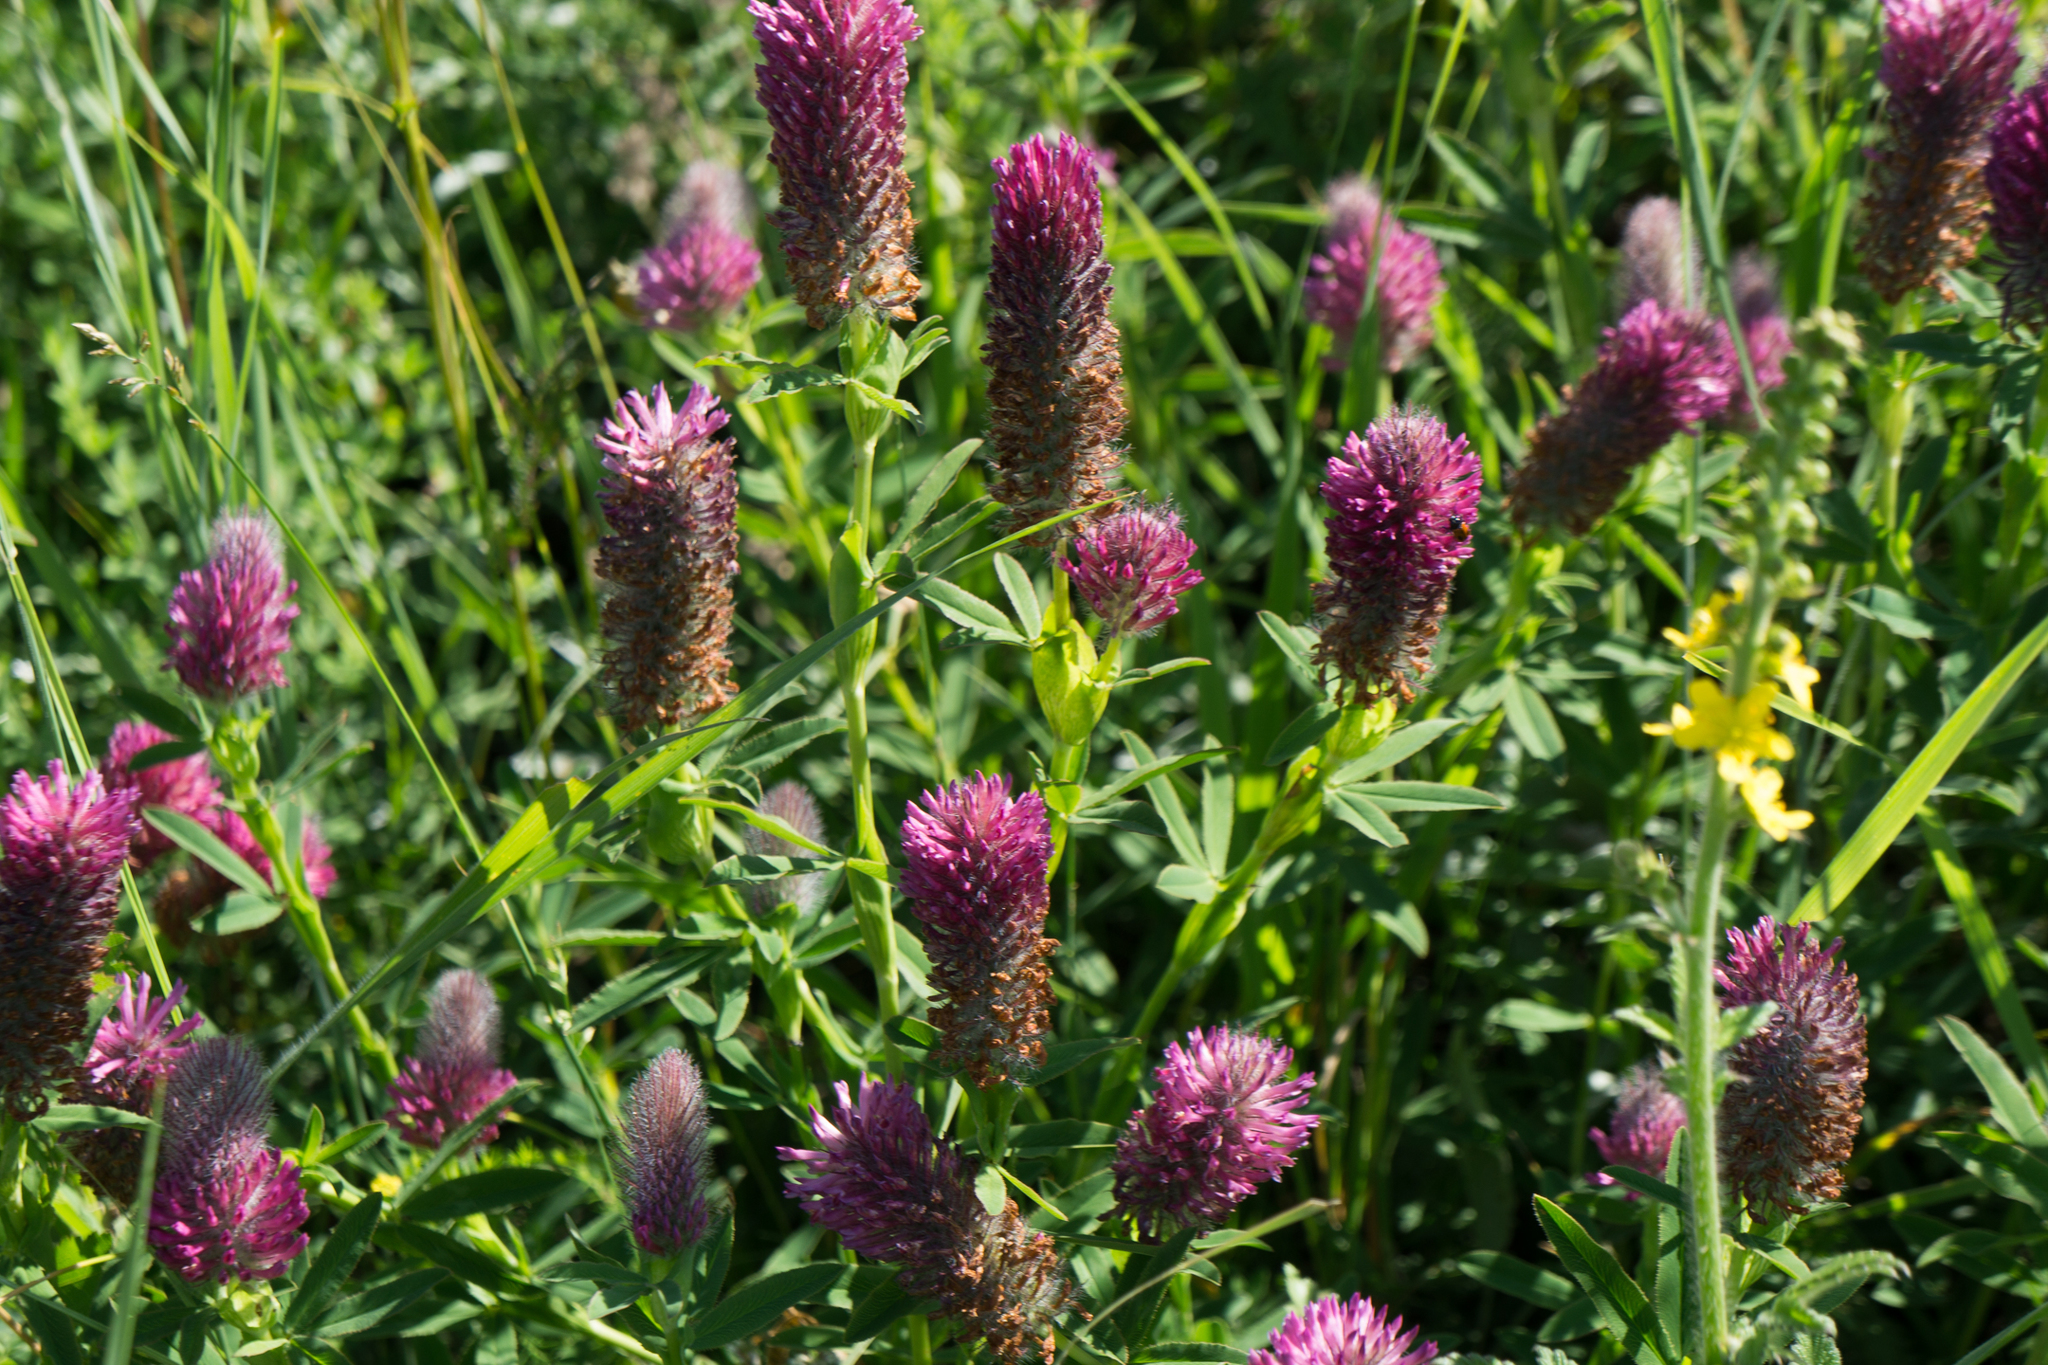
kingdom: Plantae
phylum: Tracheophyta
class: Magnoliopsida
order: Fabales
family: Fabaceae
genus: Trifolium
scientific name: Trifolium rubens
